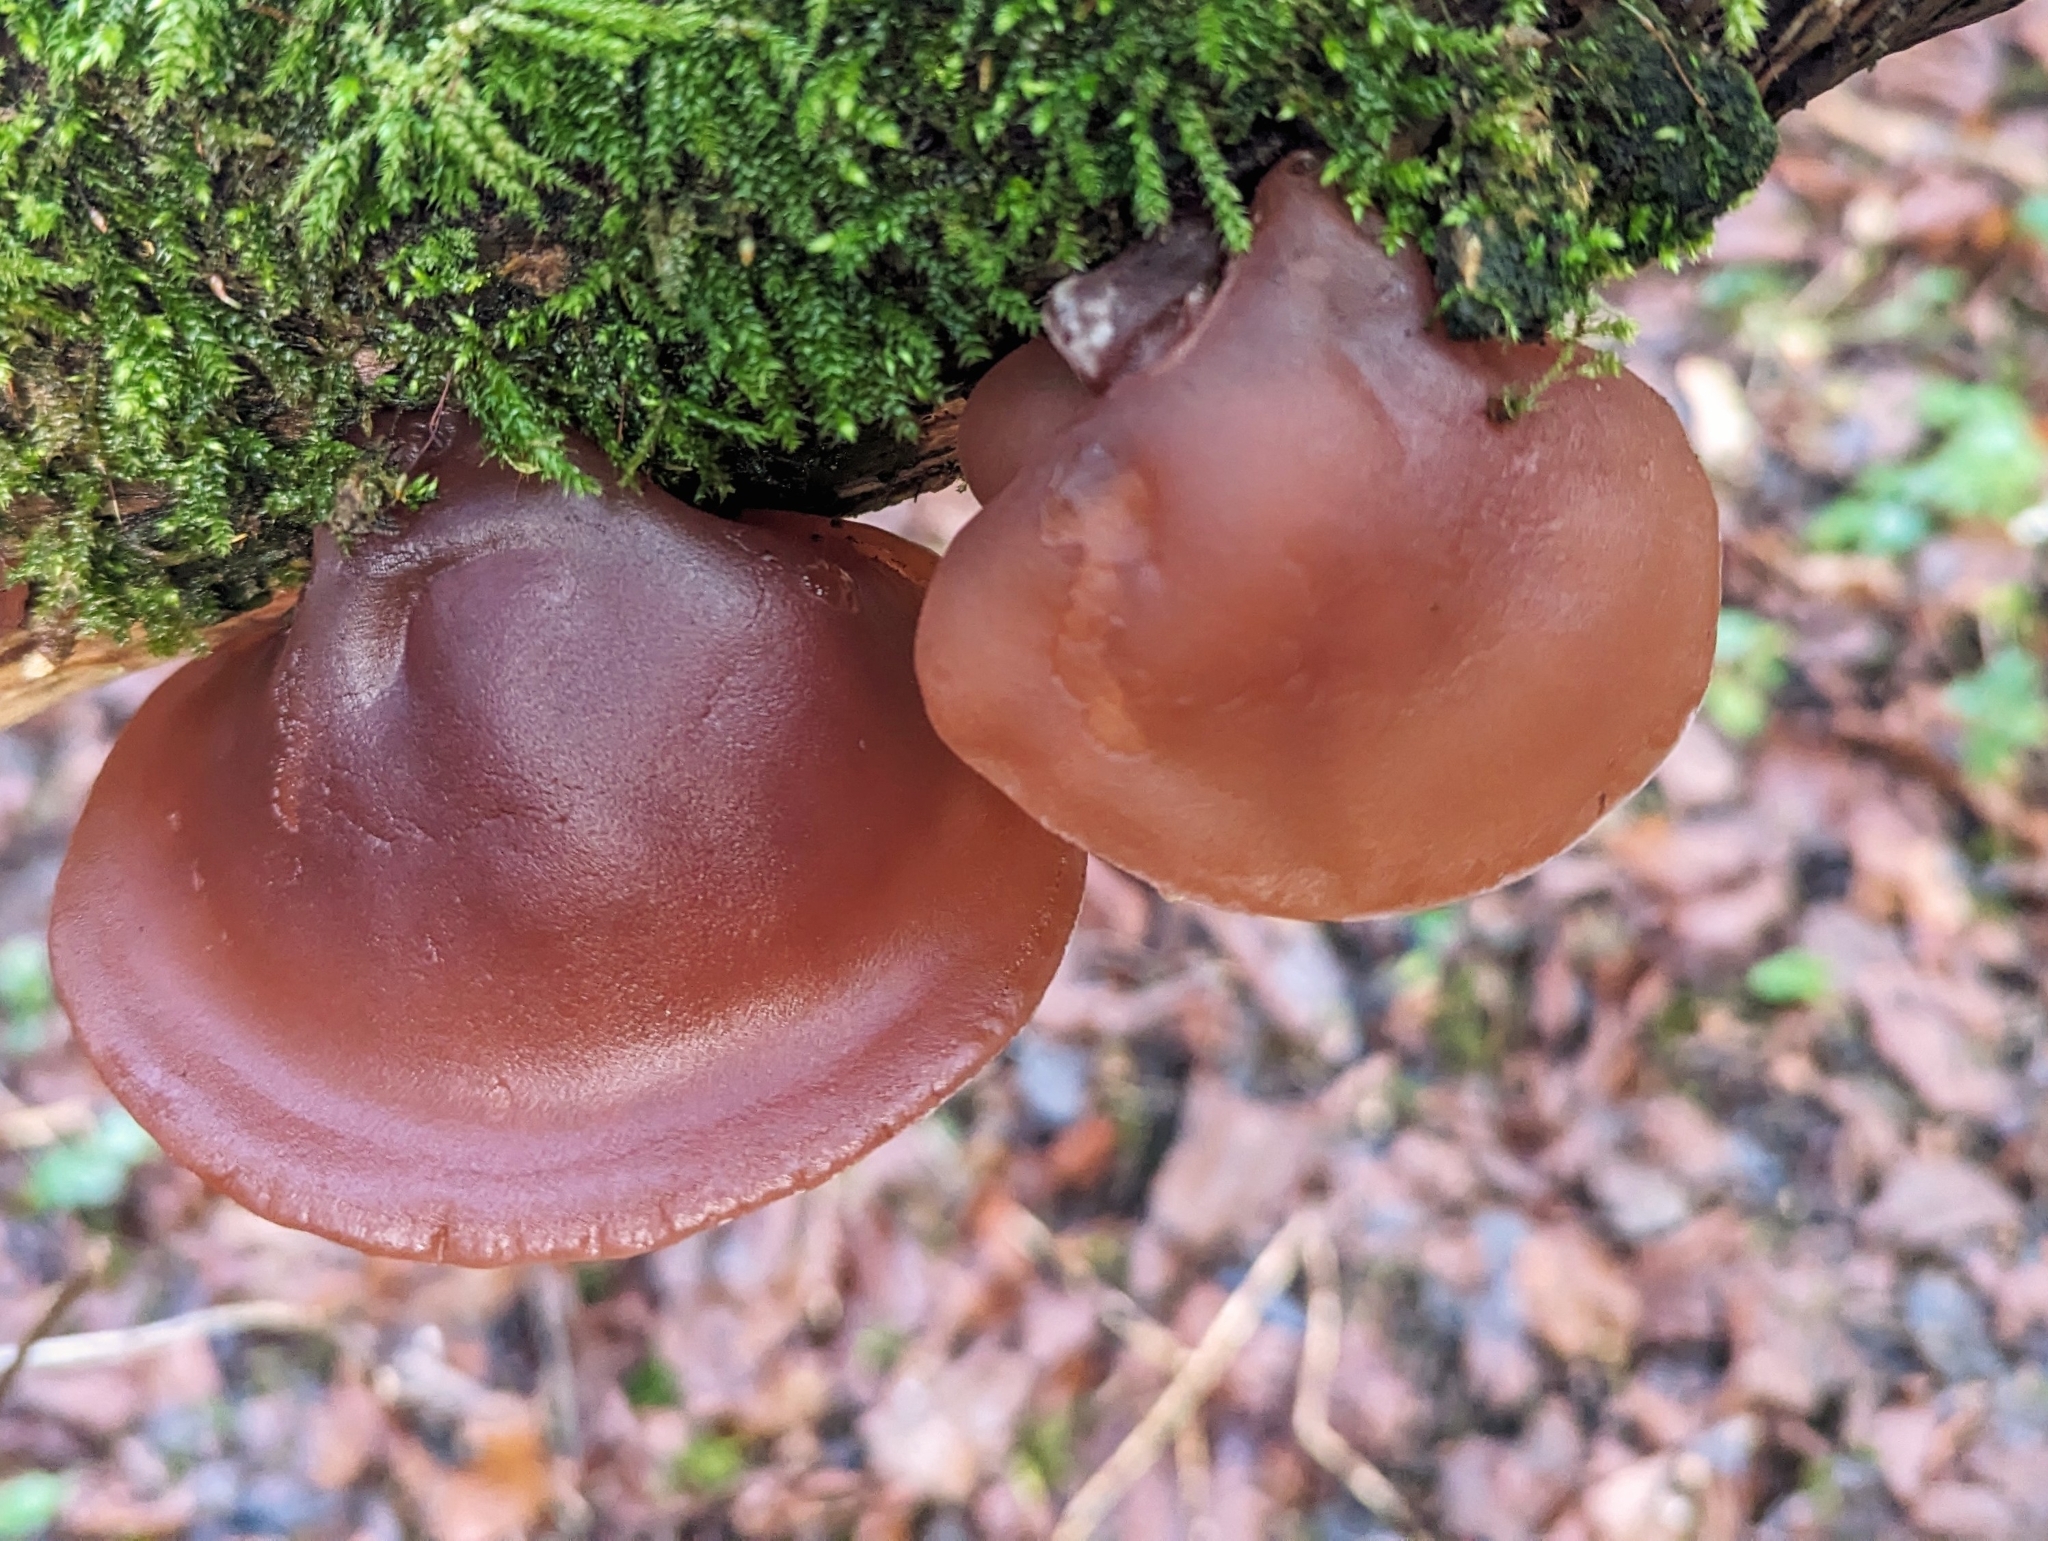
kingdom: Fungi
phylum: Basidiomycota
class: Agaricomycetes
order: Auriculariales
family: Auriculariaceae
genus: Auricularia
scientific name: Auricularia auricula-judae
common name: Jelly ear
